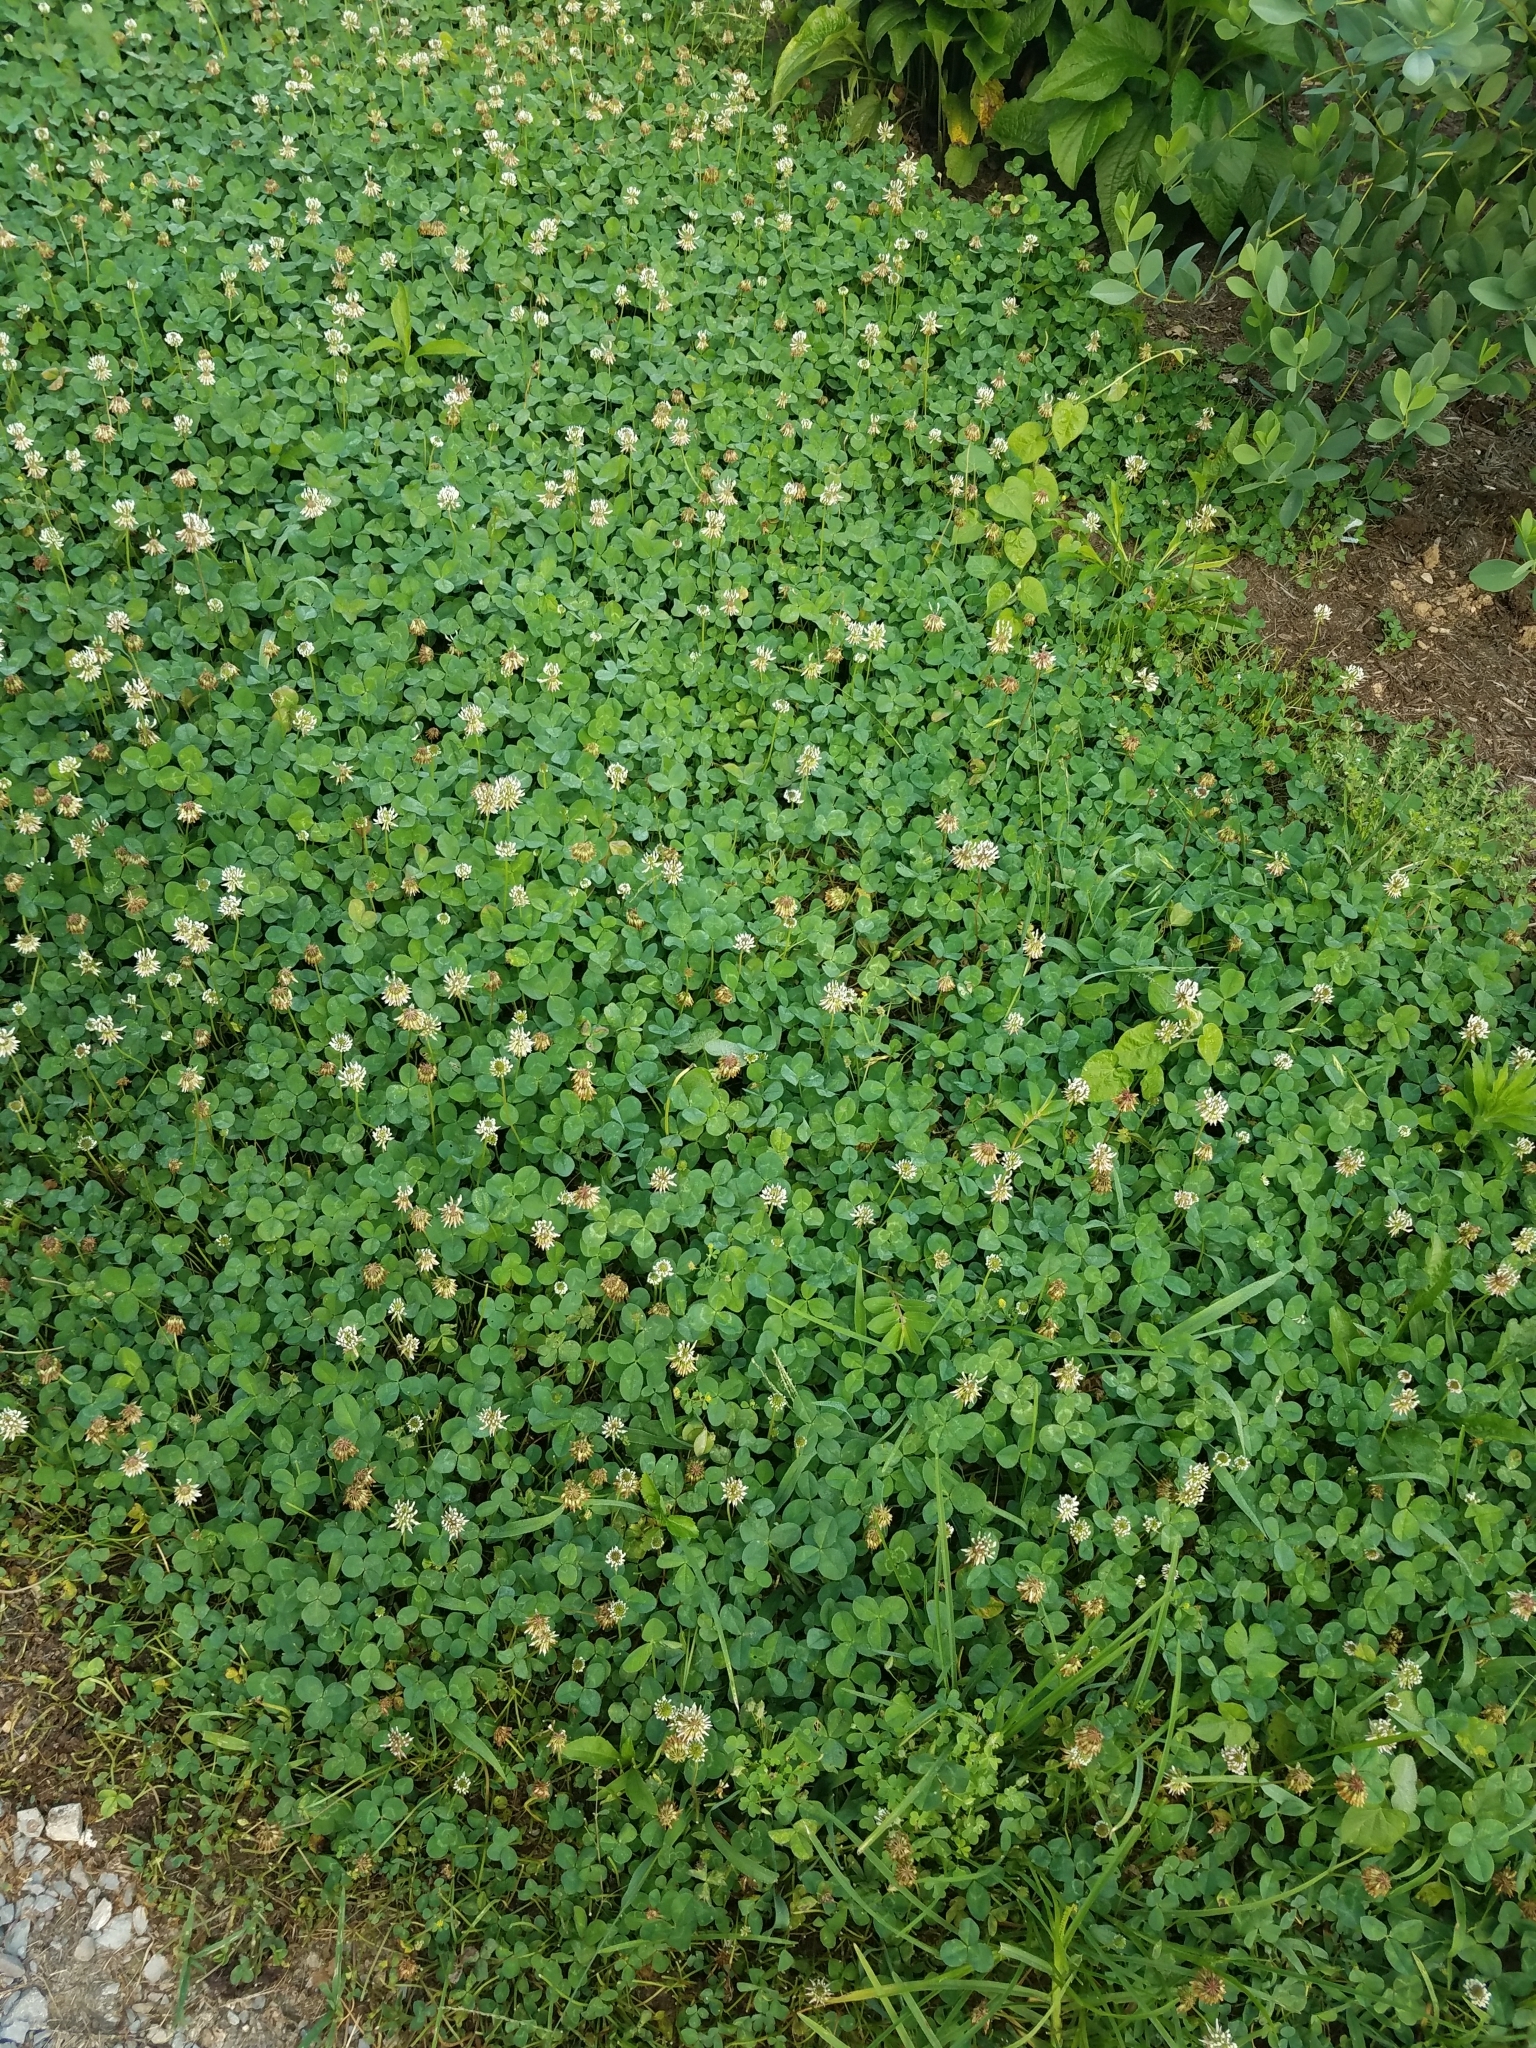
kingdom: Plantae
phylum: Tracheophyta
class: Magnoliopsida
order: Fabales
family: Fabaceae
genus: Trifolium
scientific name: Trifolium repens
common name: White clover
